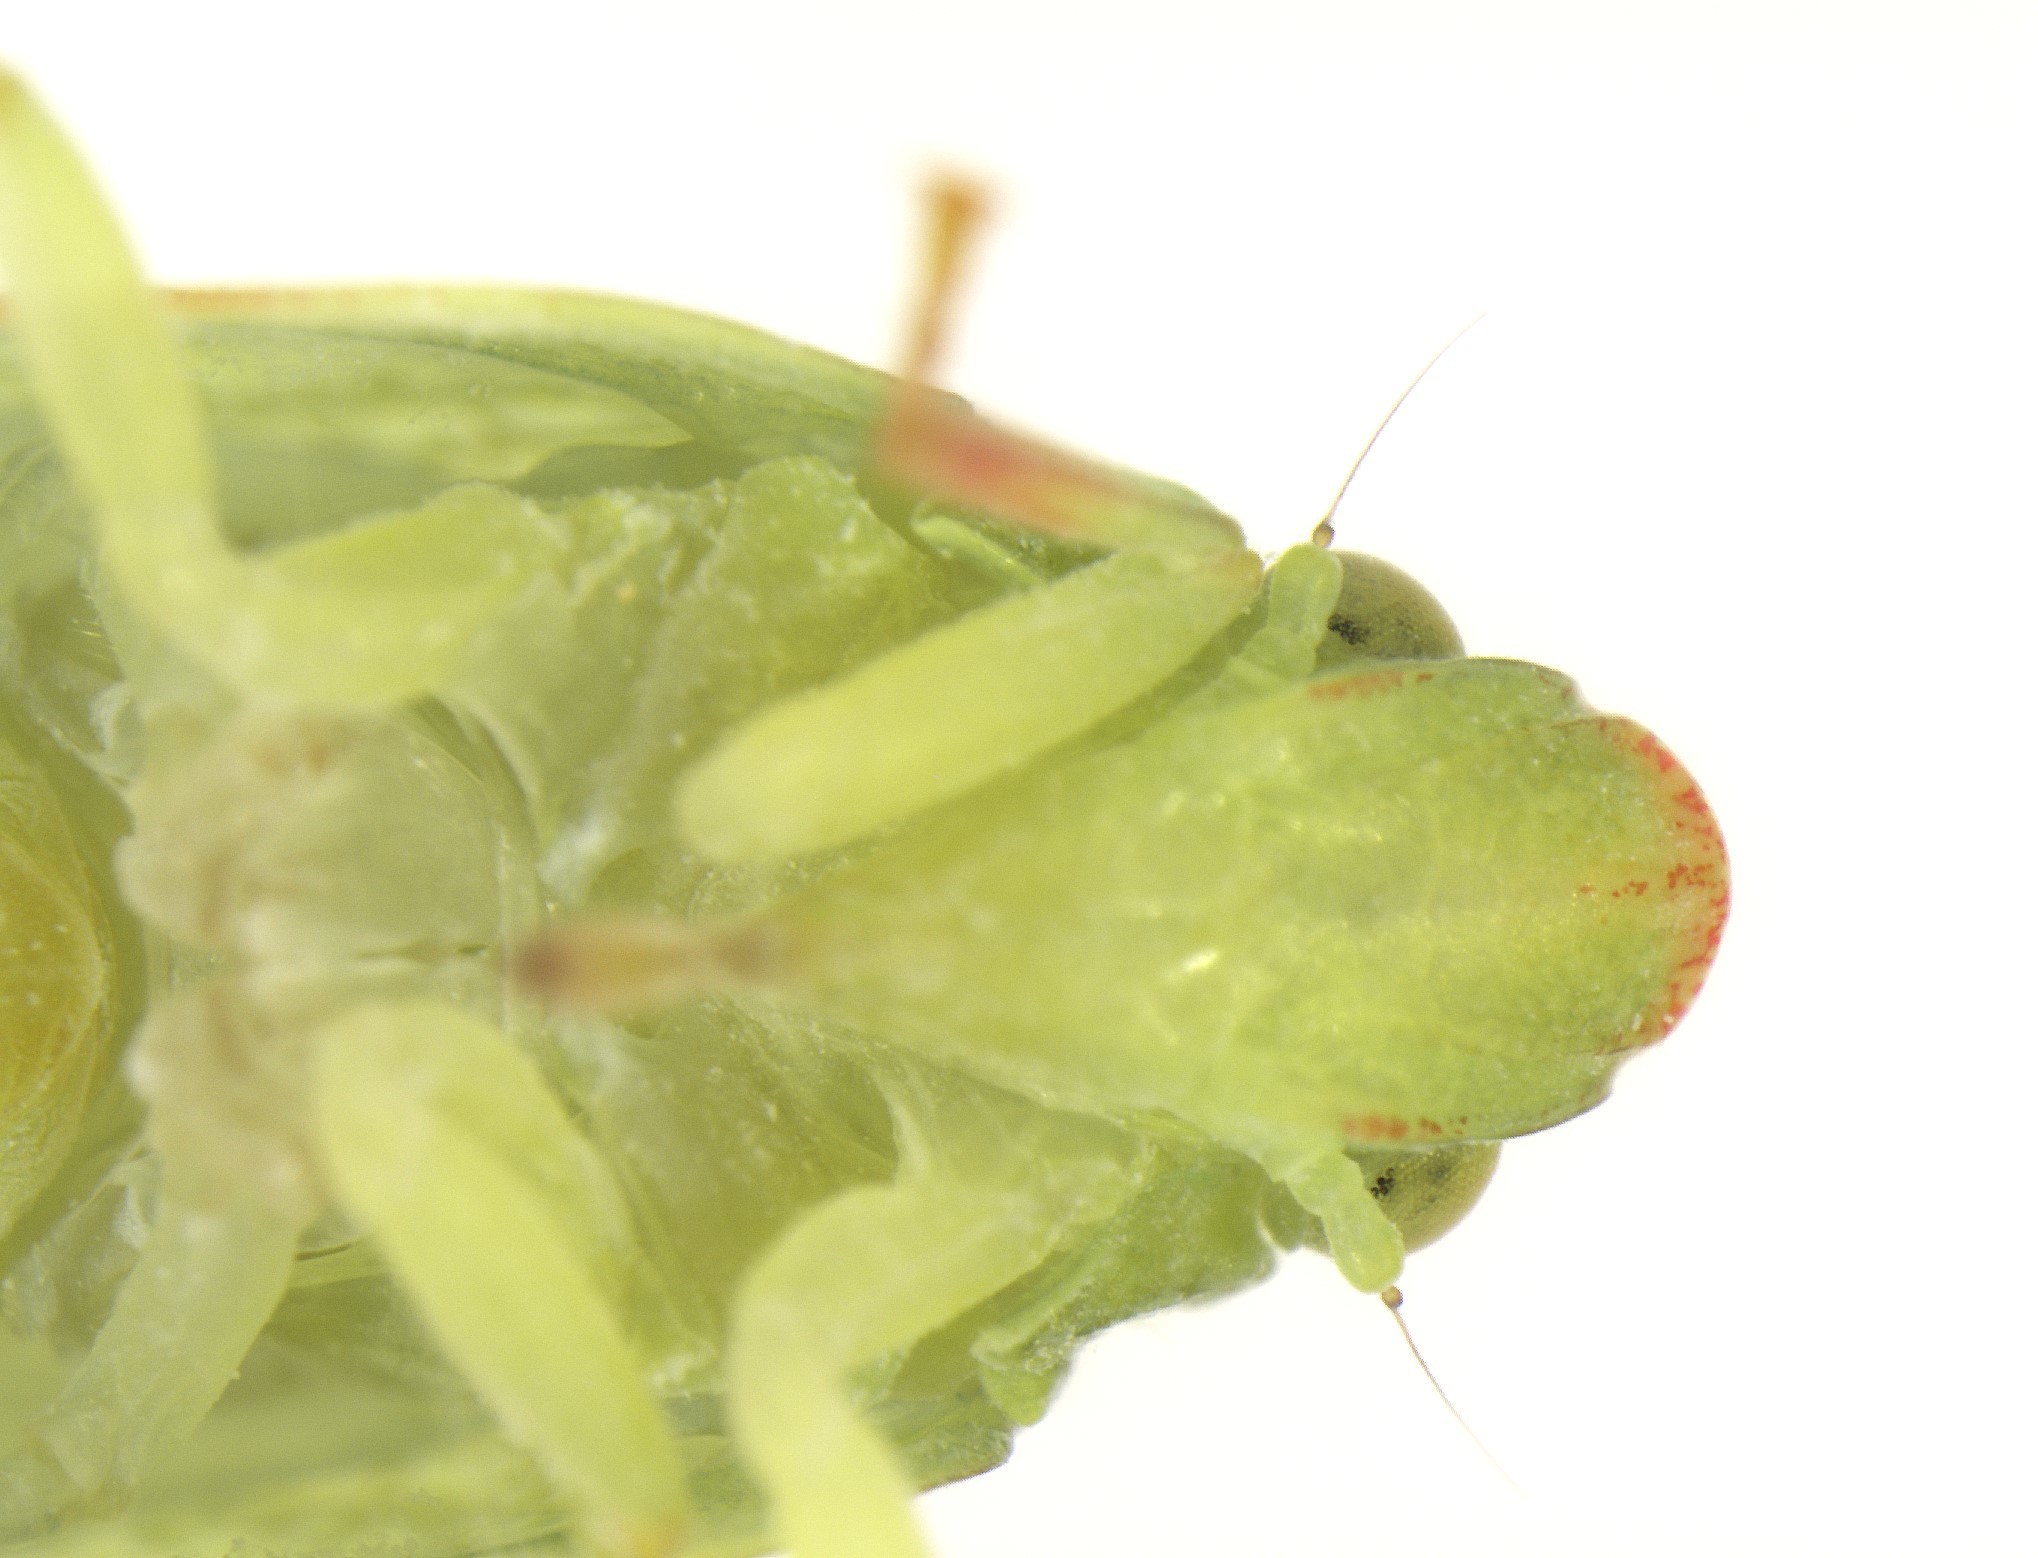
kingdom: Animalia
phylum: Arthropoda
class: Insecta
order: Hemiptera
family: Flatidae
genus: Siphanta
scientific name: Siphanta acuta
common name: Torpedo bug
